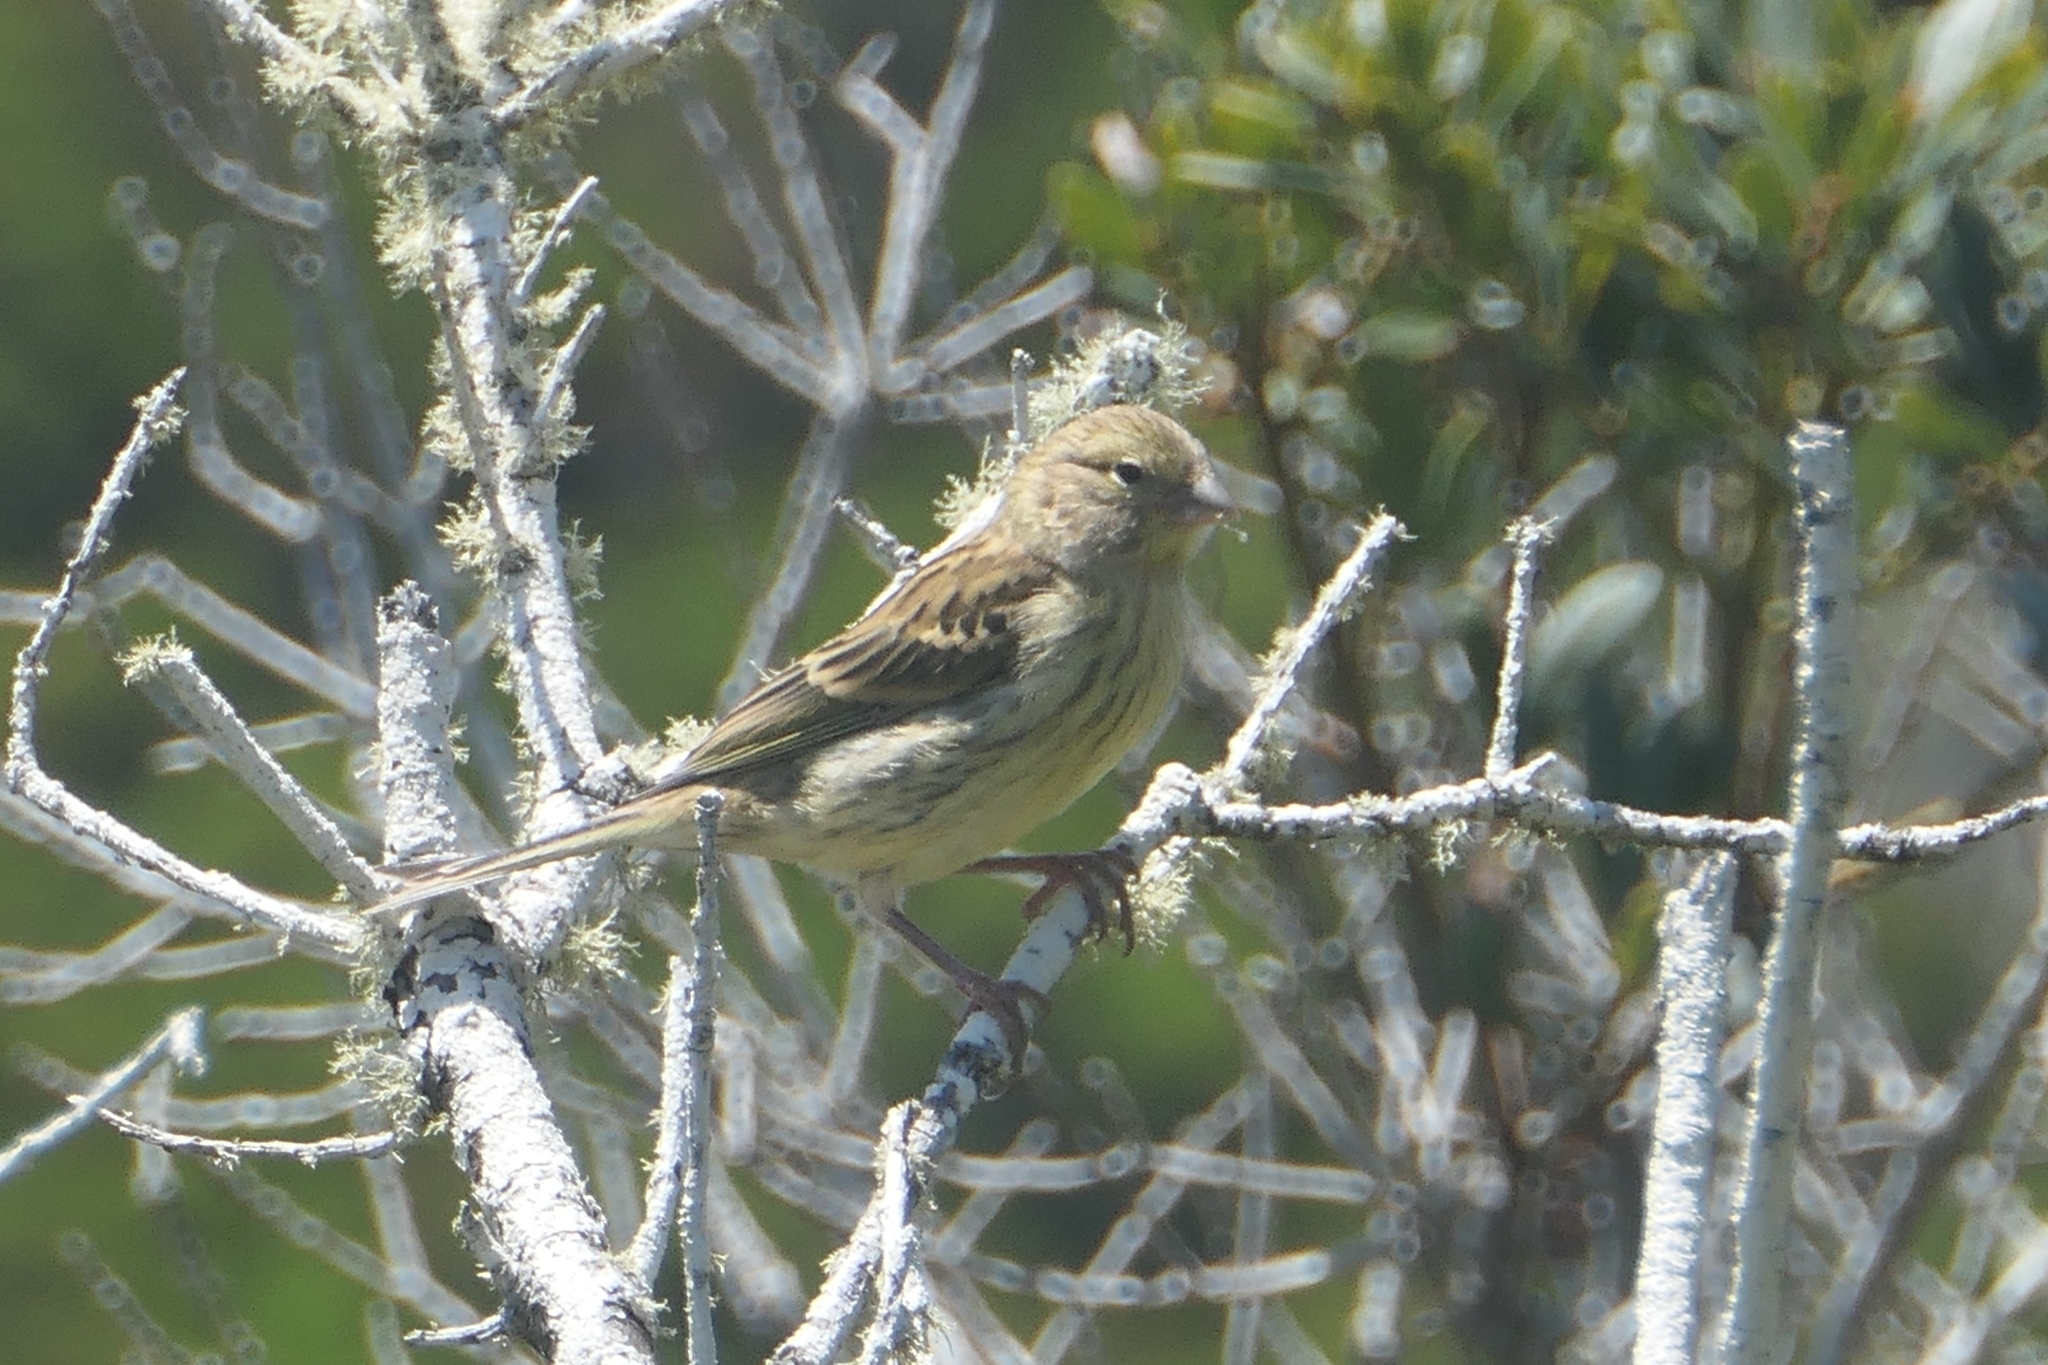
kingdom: Animalia
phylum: Chordata
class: Aves
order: Passeriformes
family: Fringillidae
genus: Serinus
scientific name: Serinus canaria
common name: Atlantic canary
